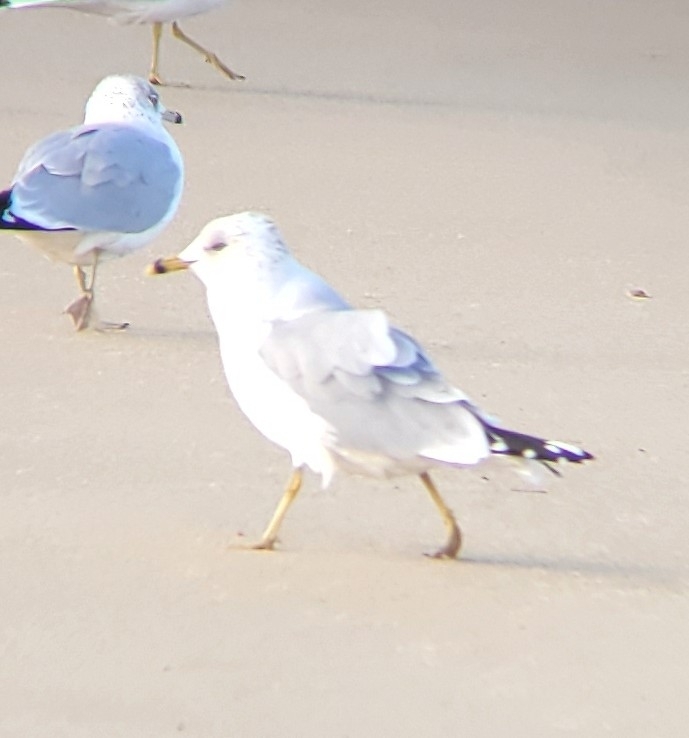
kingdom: Animalia
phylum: Chordata
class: Aves
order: Charadriiformes
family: Laridae
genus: Larus
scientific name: Larus delawarensis
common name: Ring-billed gull
